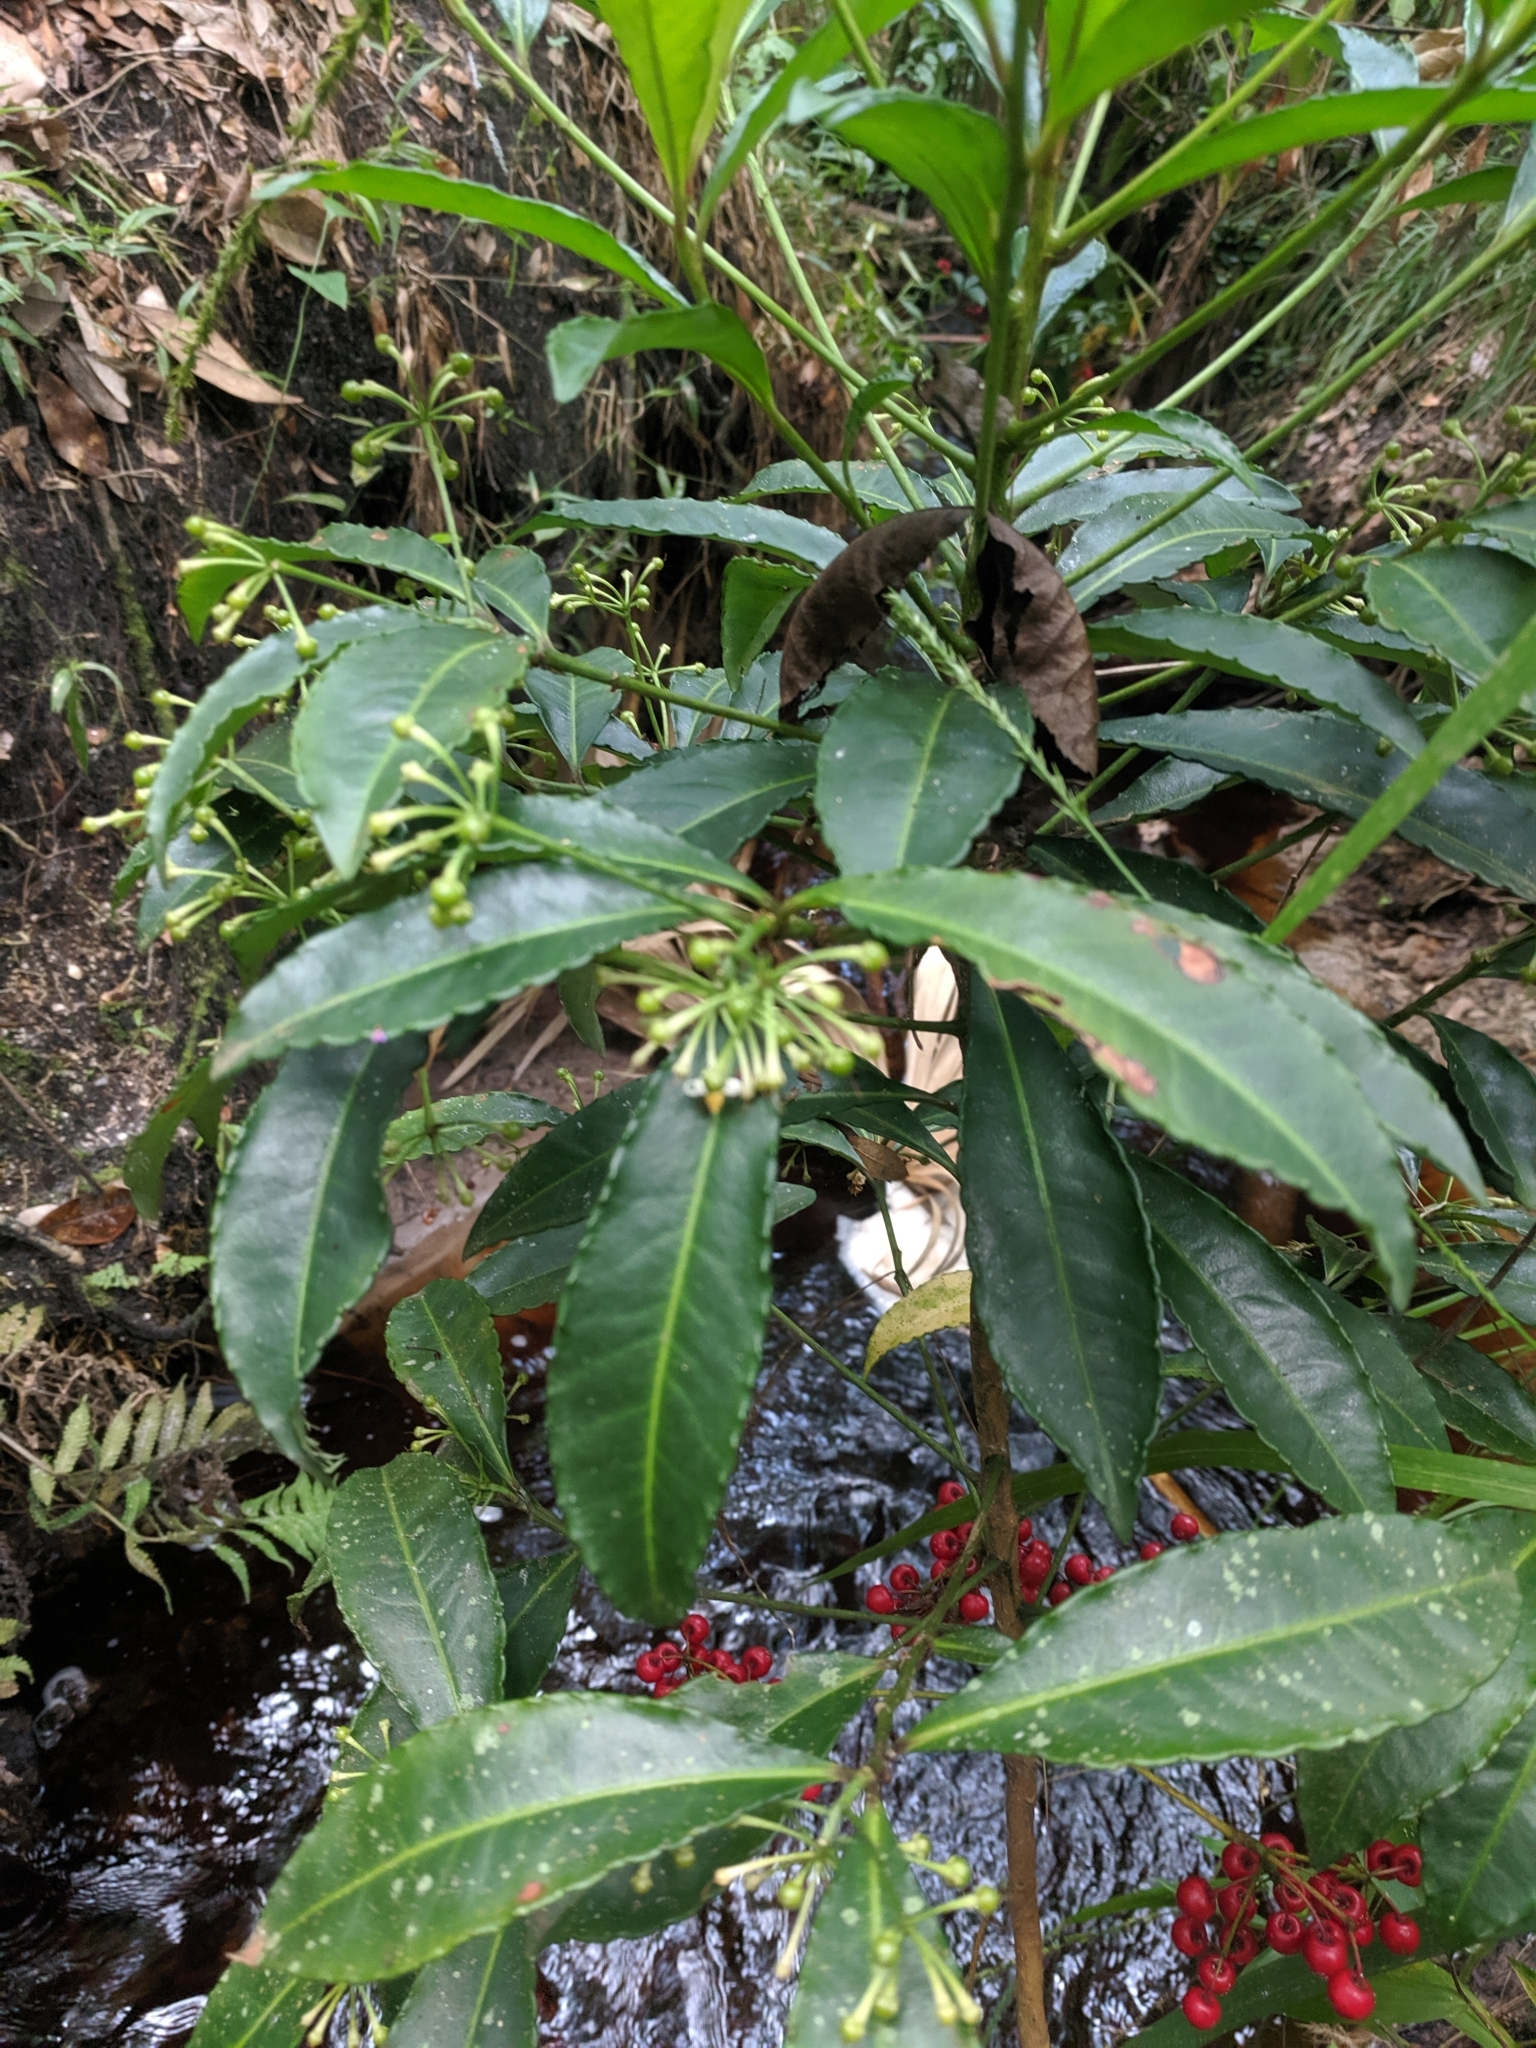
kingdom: Plantae
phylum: Tracheophyta
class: Magnoliopsida
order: Ericales
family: Primulaceae
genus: Ardisia
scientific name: Ardisia crenata
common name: Hen's eyes
